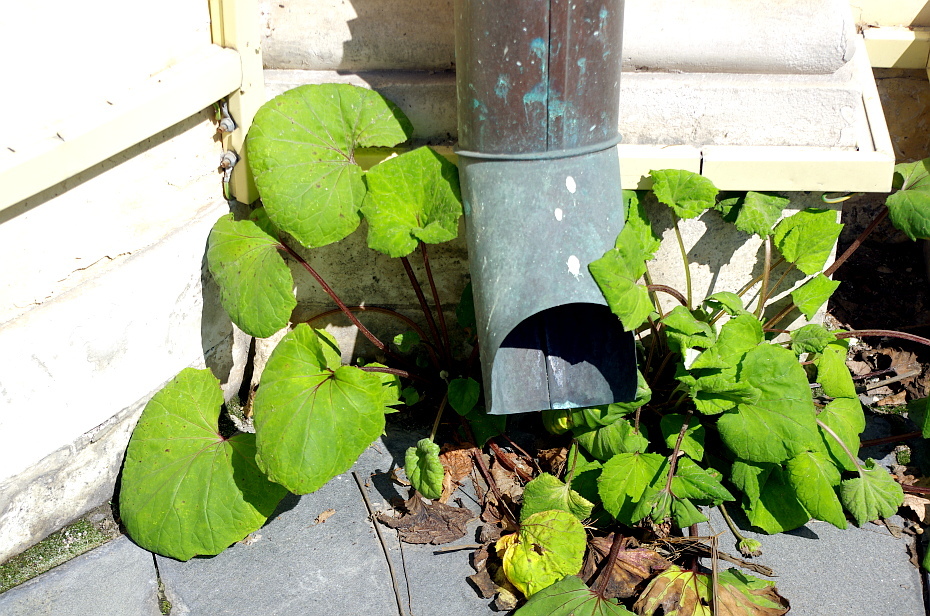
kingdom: Plantae
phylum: Tracheophyta
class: Magnoliopsida
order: Asterales
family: Asteraceae
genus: Tussilago
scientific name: Tussilago farfara
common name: Coltsfoot
